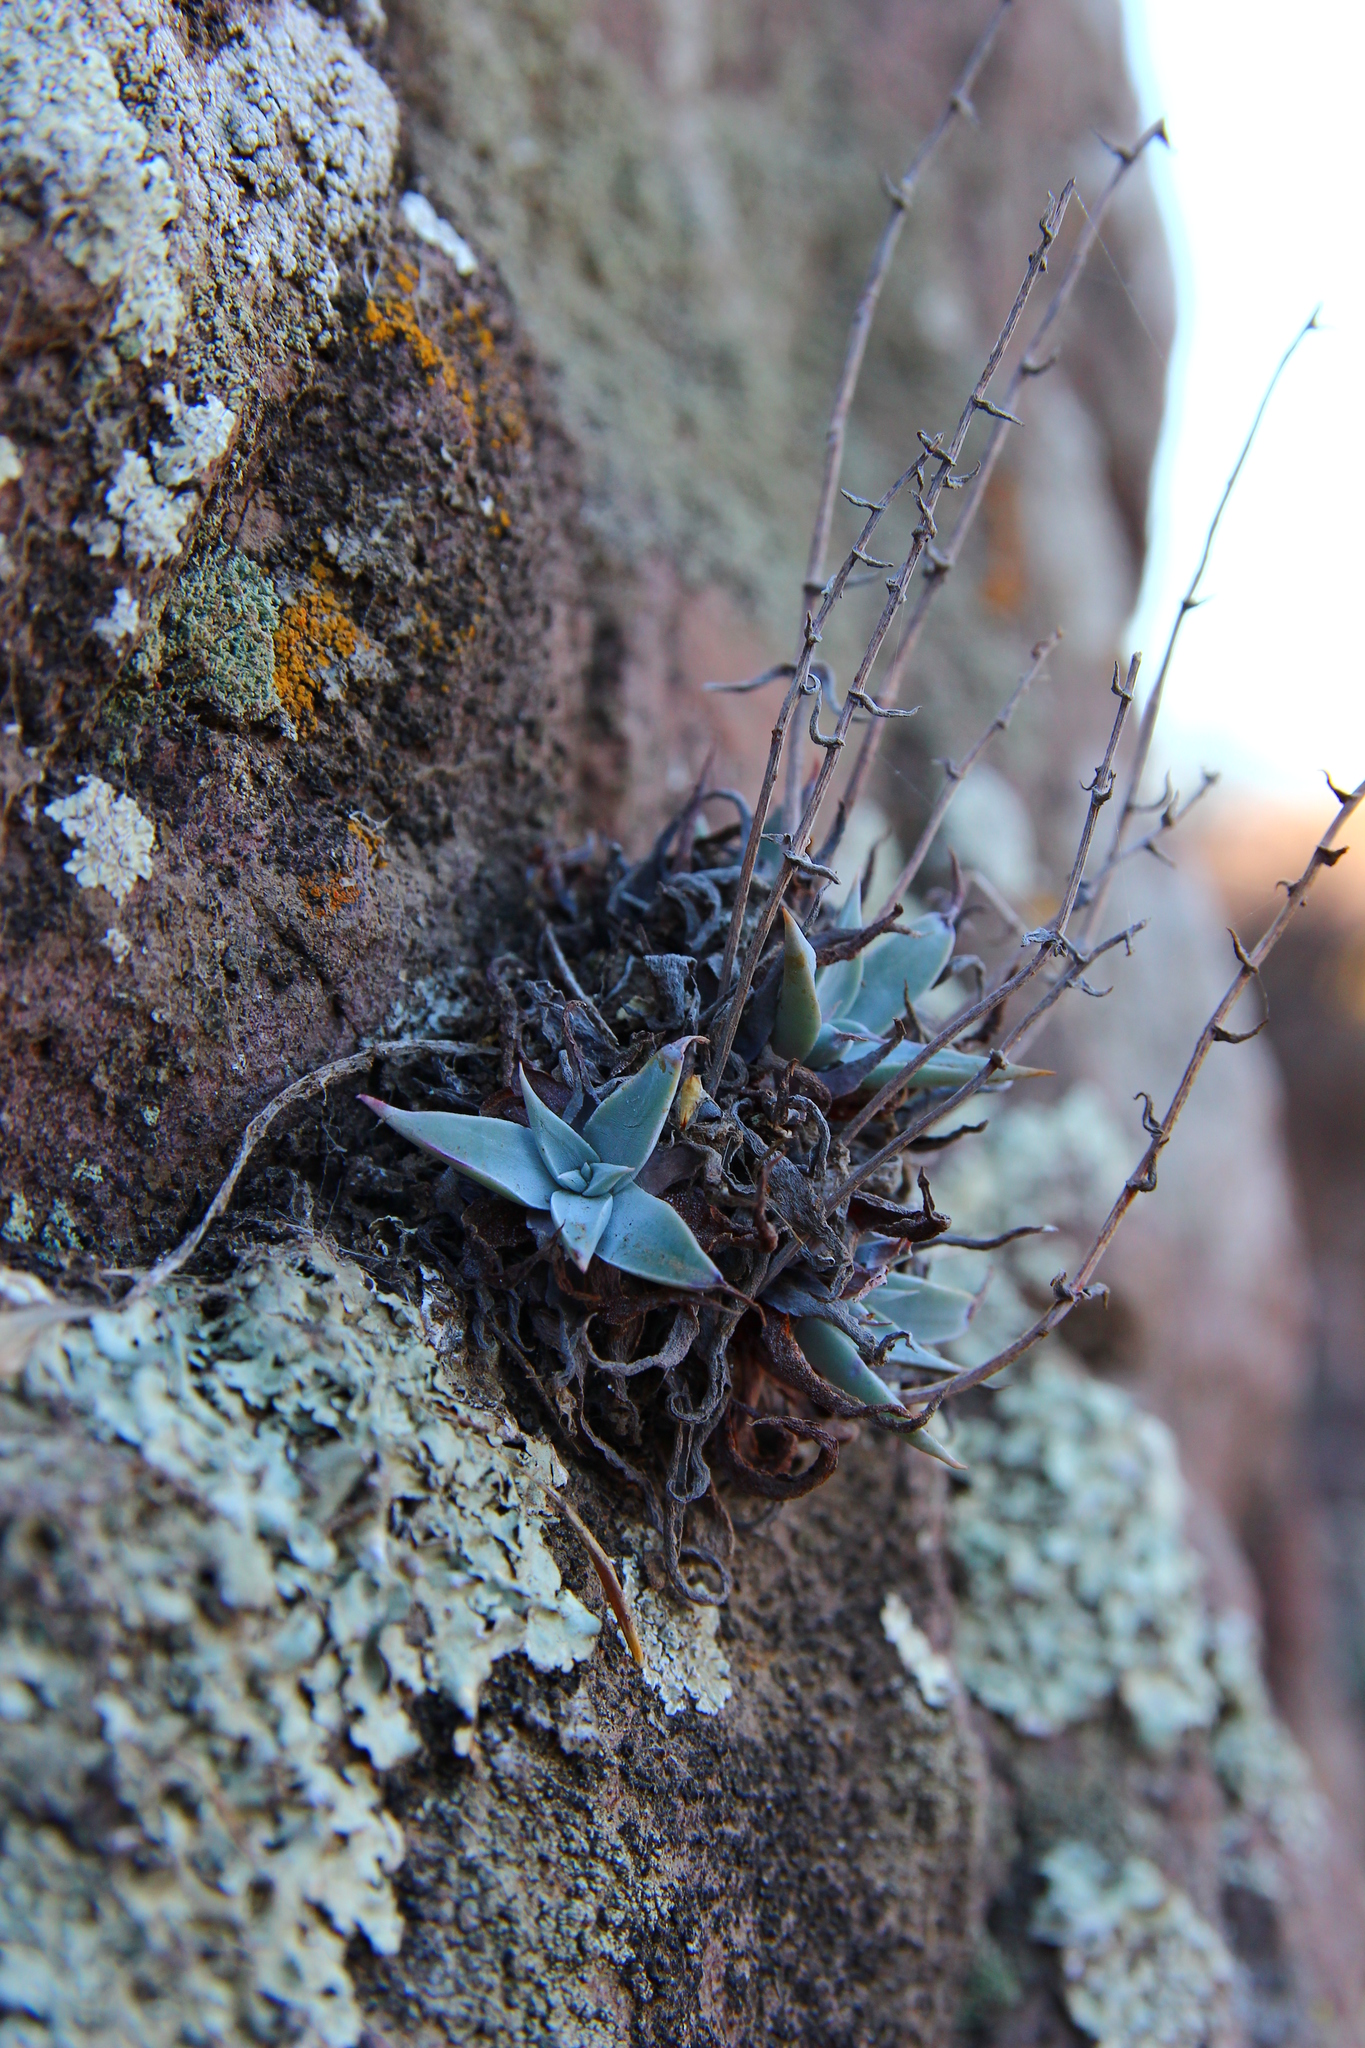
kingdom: Plantae
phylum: Tracheophyta
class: Magnoliopsida
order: Saxifragales
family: Crassulaceae
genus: Dudleya
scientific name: Dudleya verityi
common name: Verity dudleya
